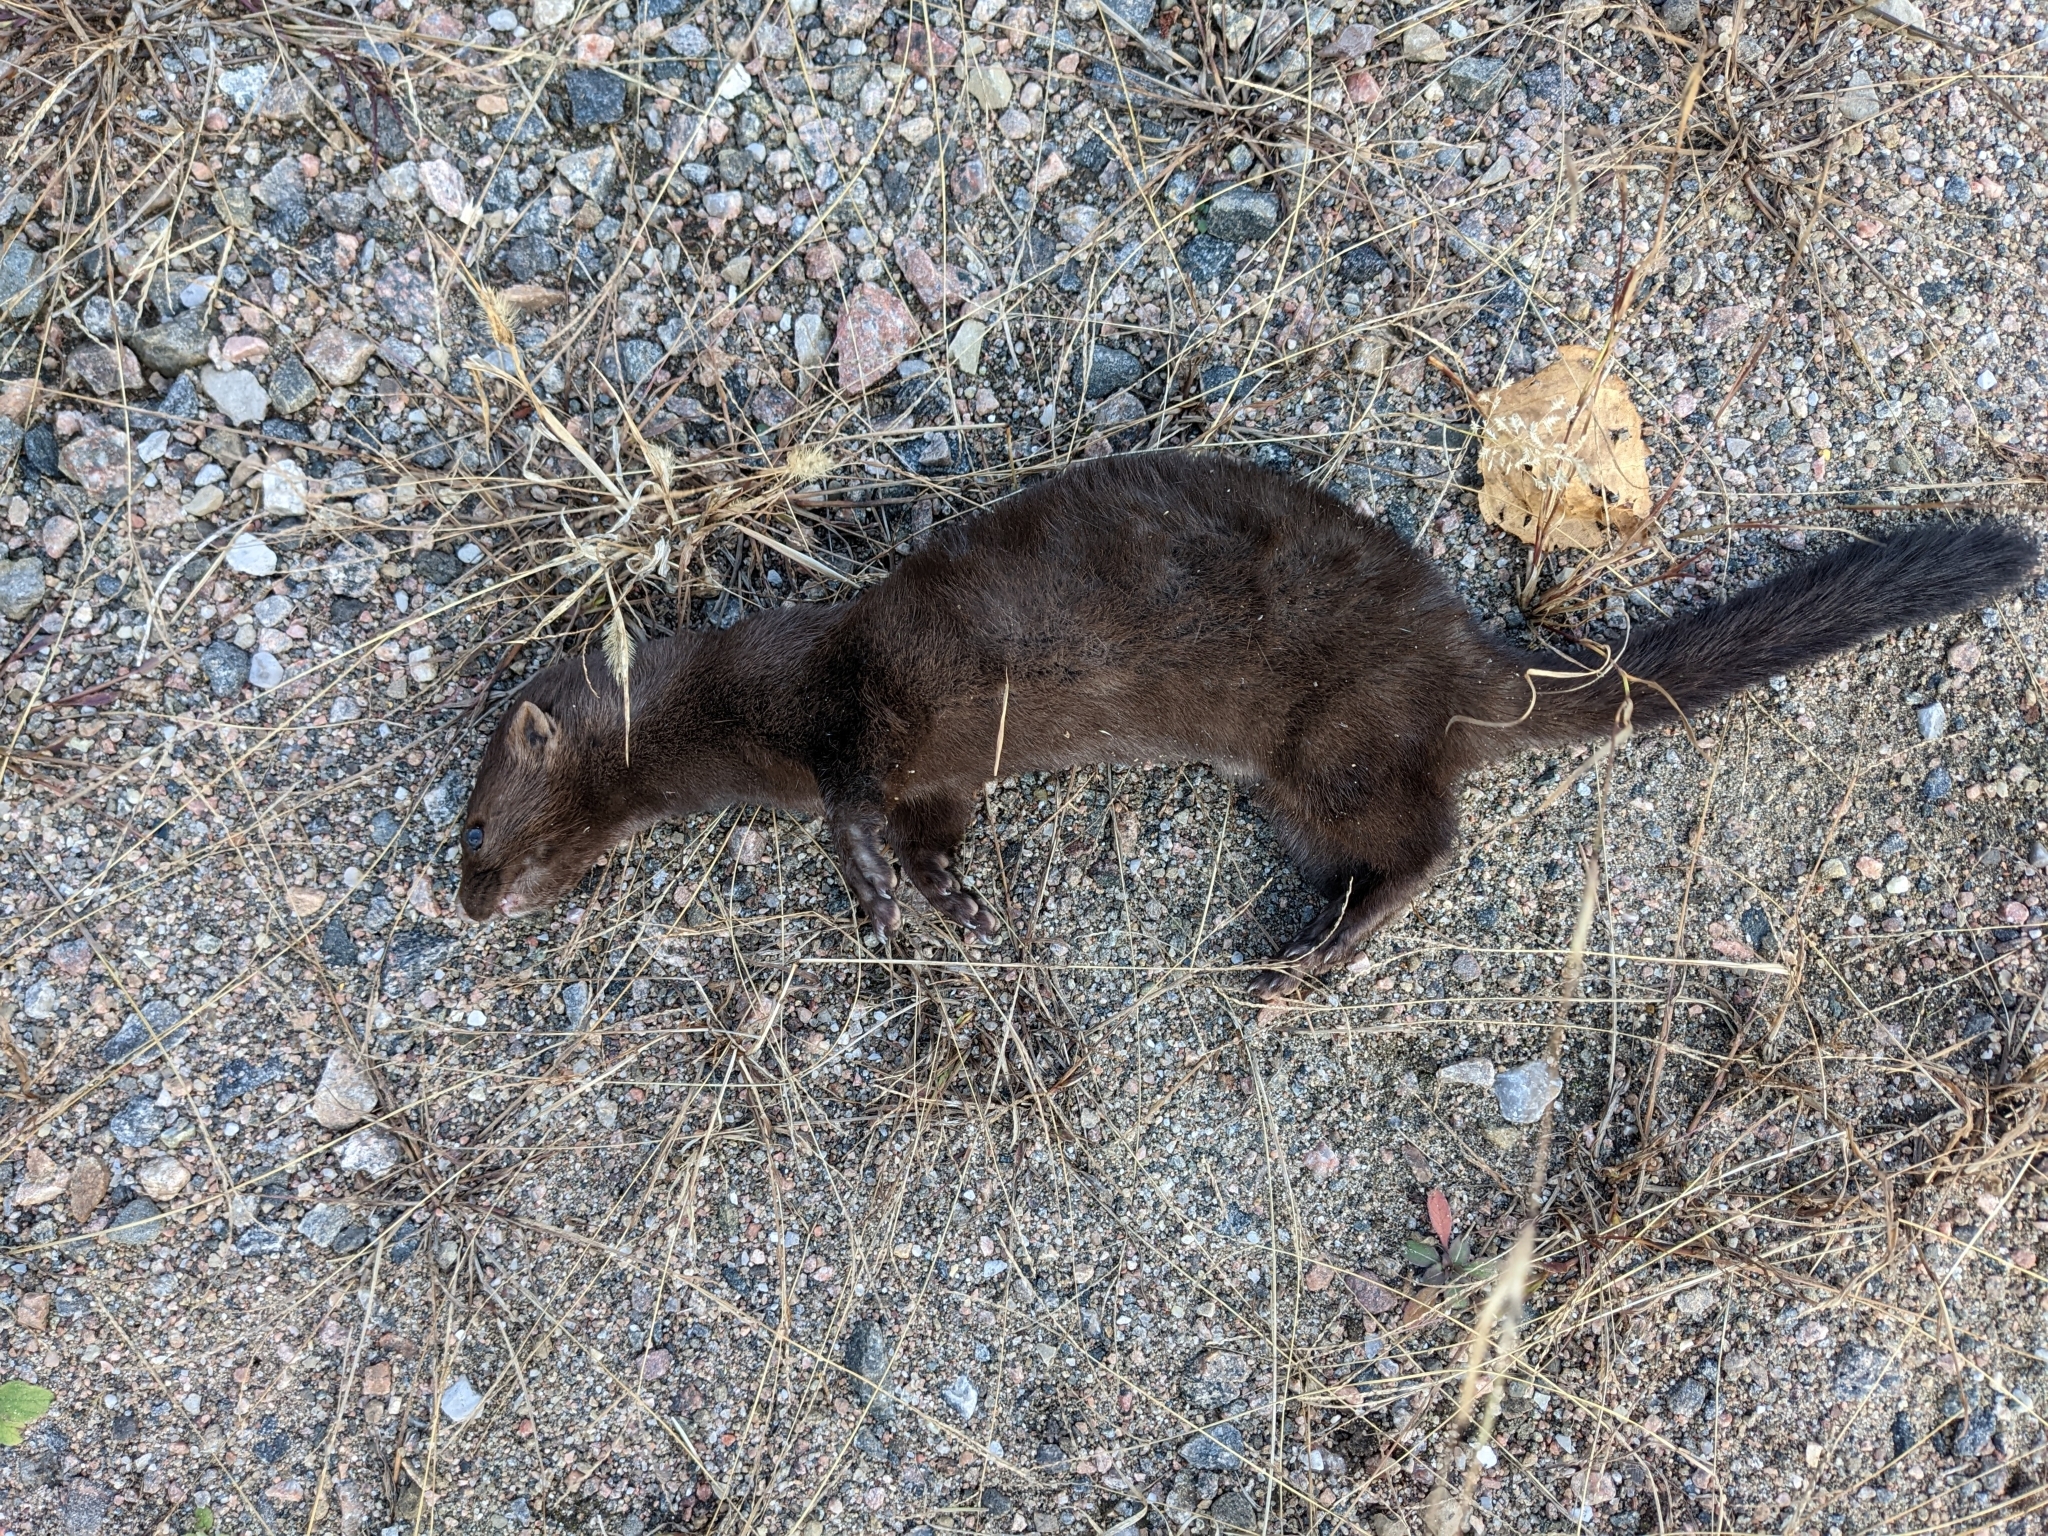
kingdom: Animalia
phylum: Chordata
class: Mammalia
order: Carnivora
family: Mustelidae
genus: Mustela
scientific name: Mustela
